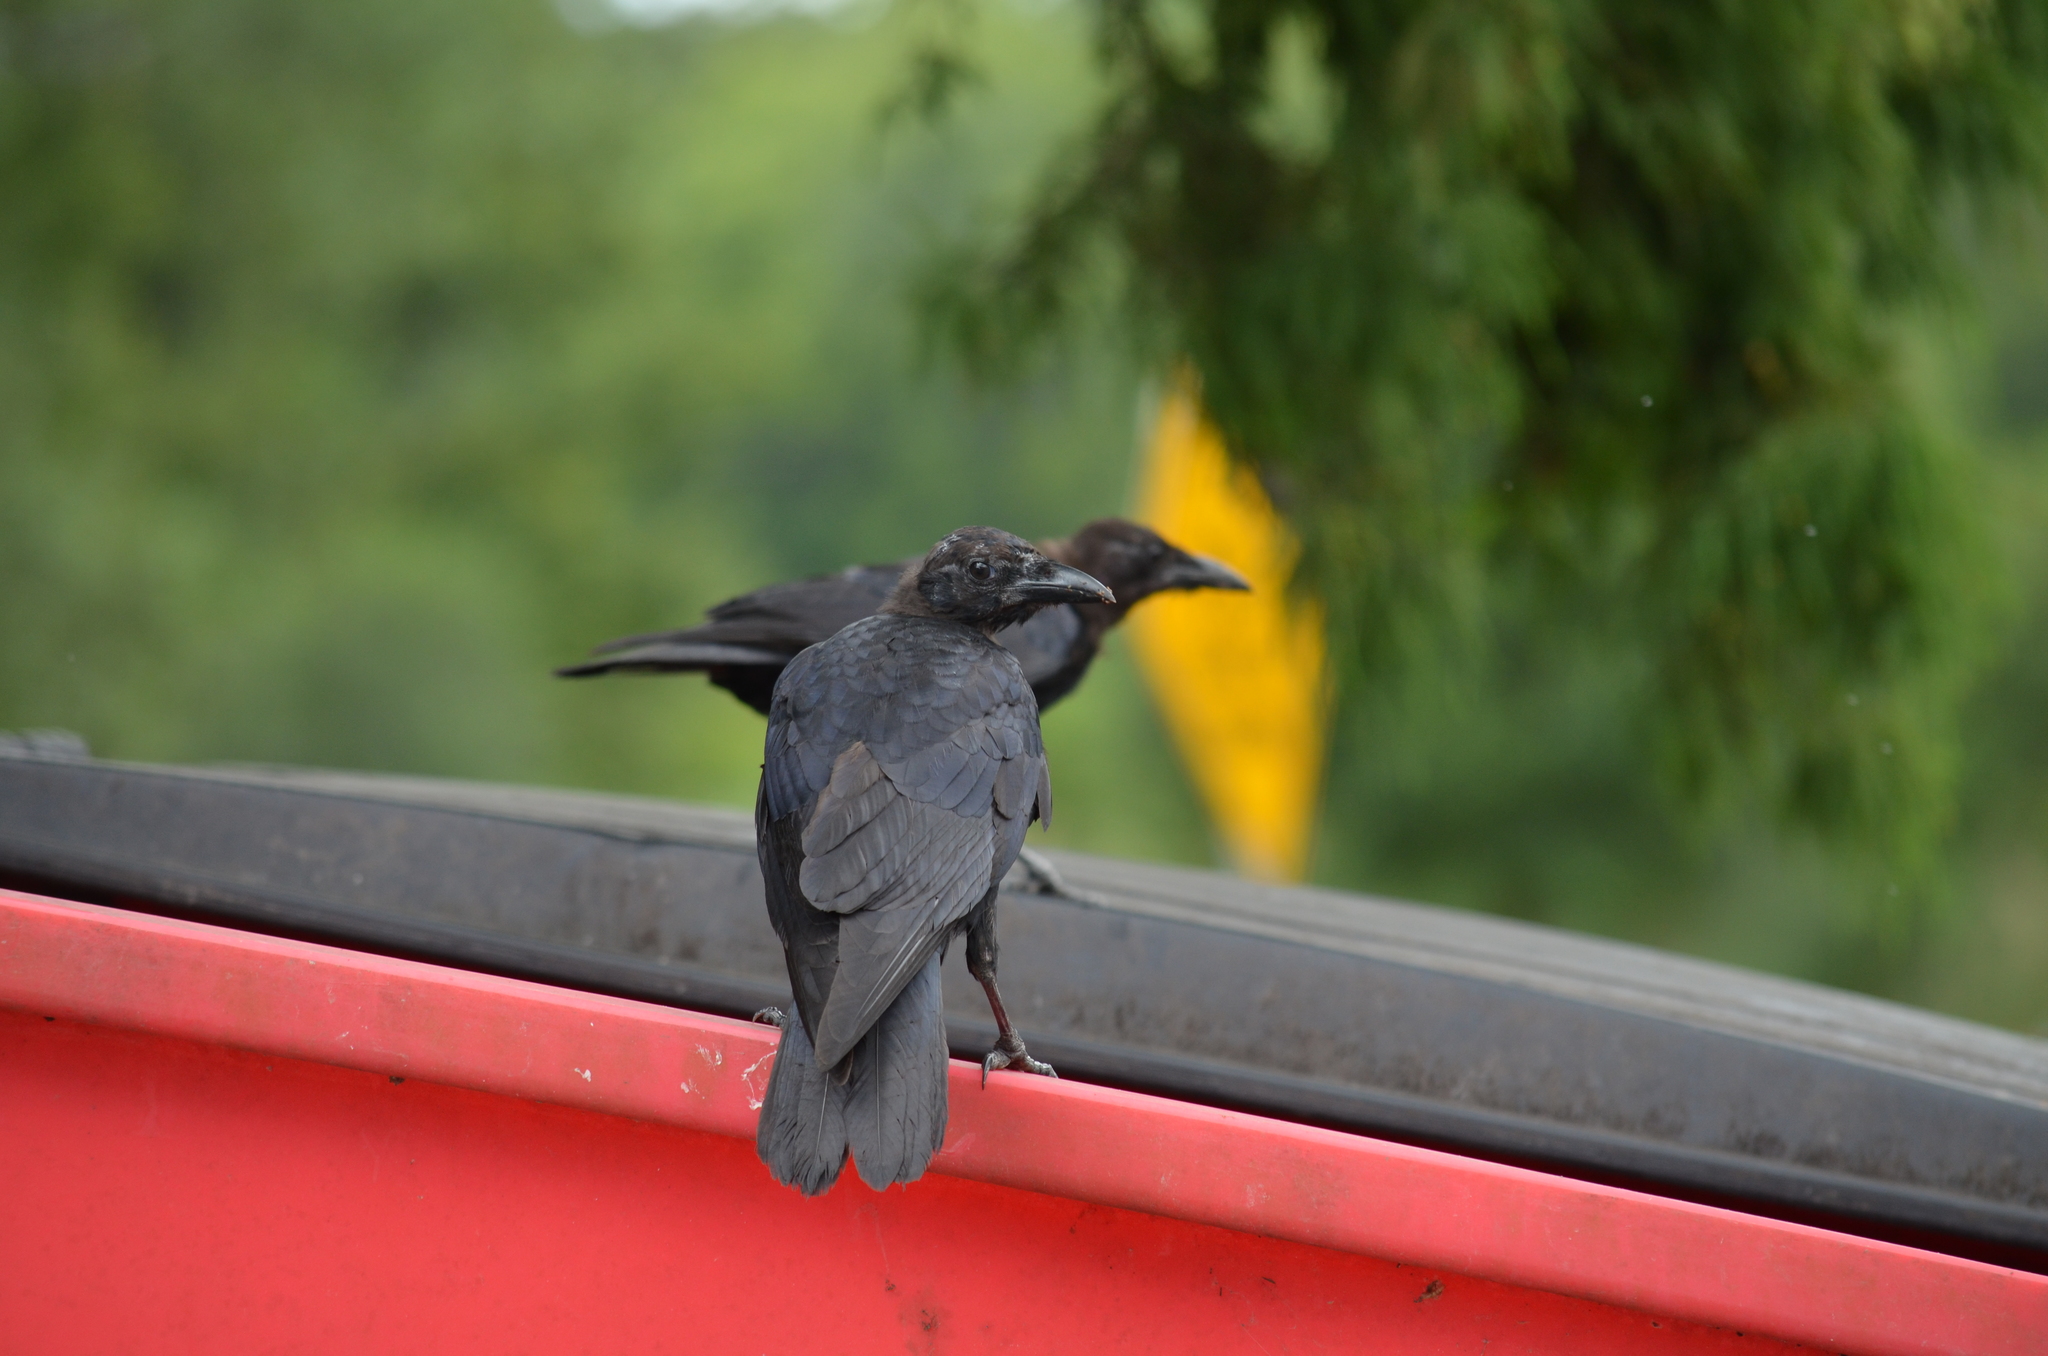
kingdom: Animalia
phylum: Chordata
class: Aves
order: Passeriformes
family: Corvidae
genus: Corvus
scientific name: Corvus brachyrhynchos
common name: American crow
